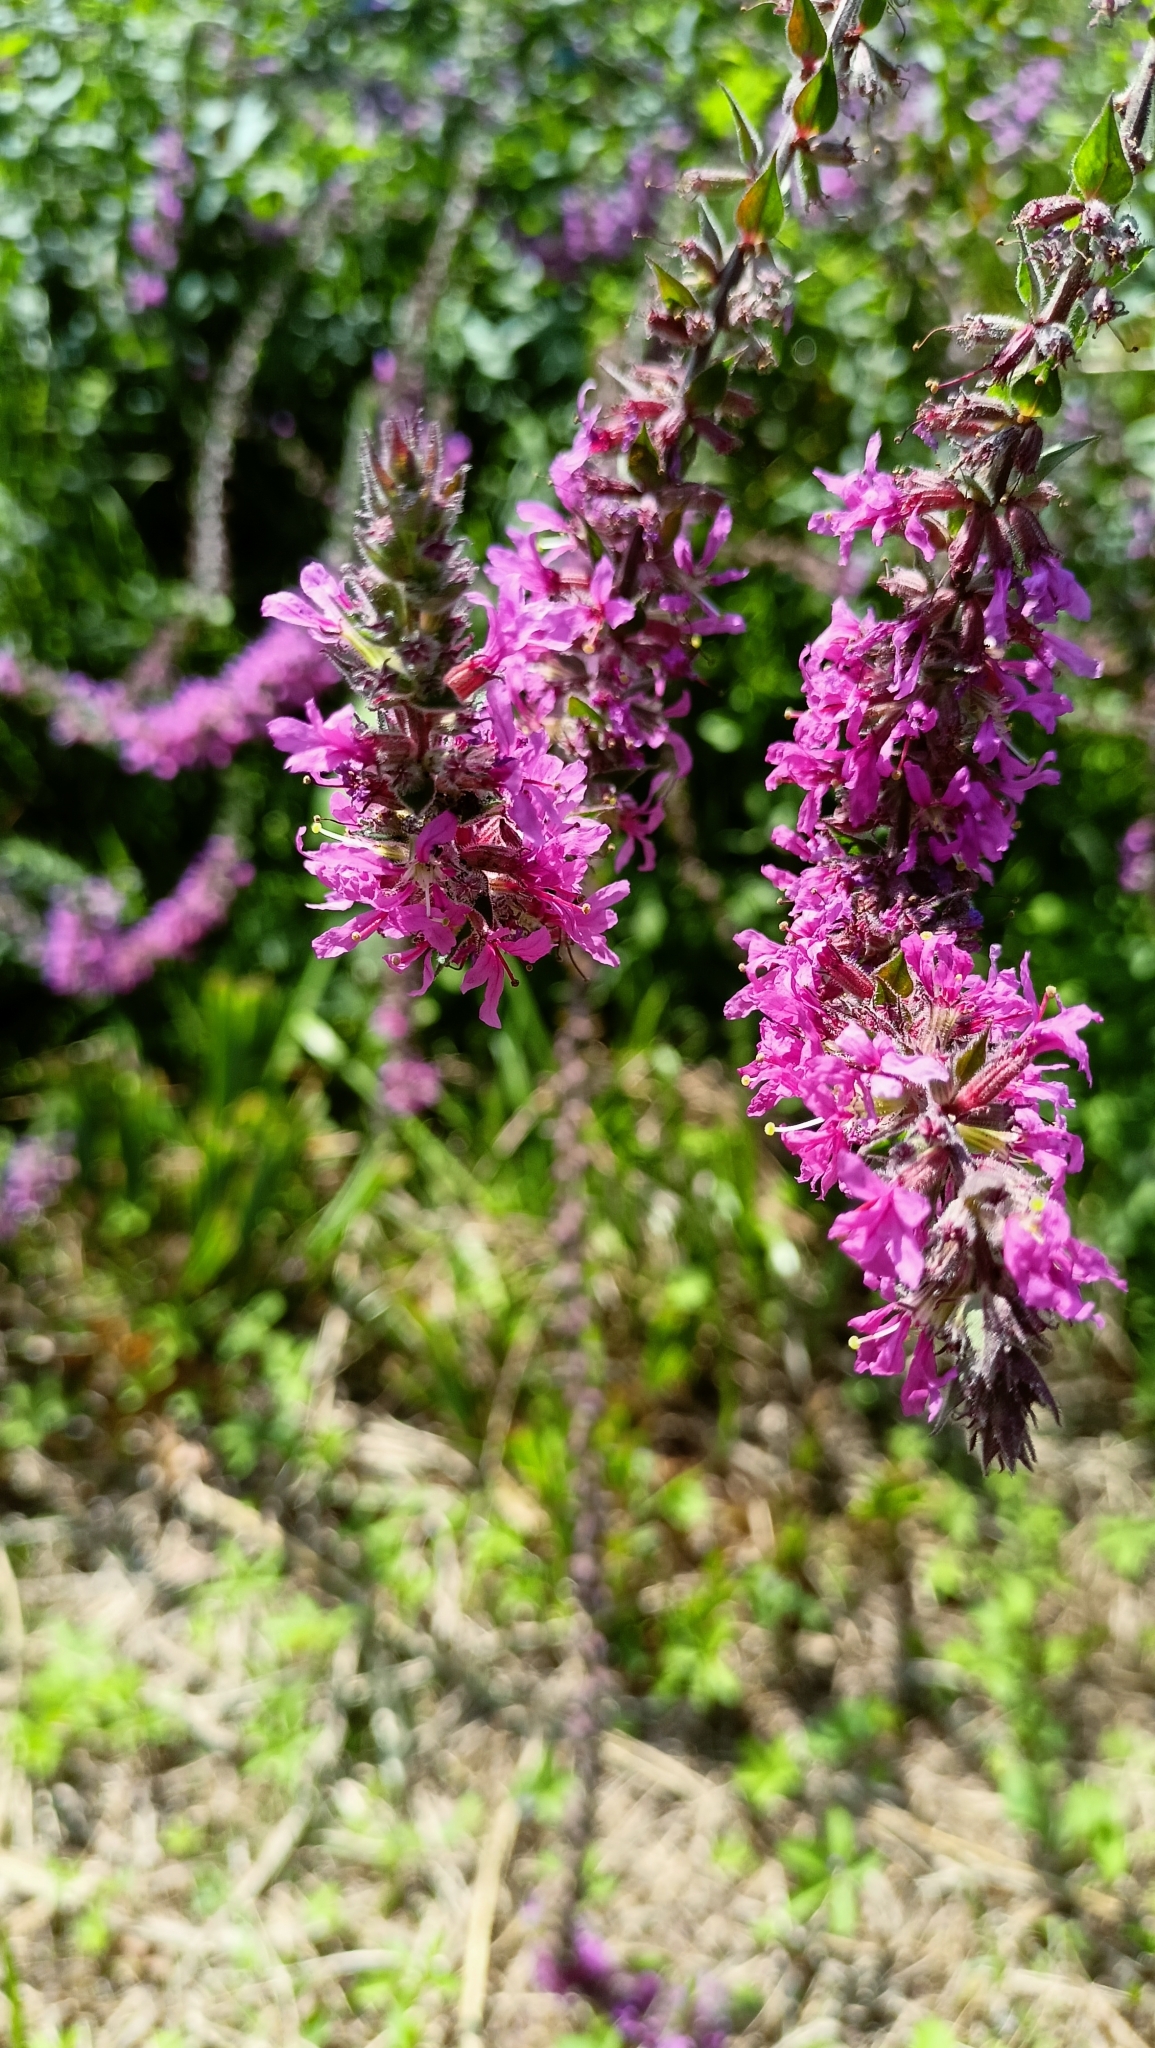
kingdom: Plantae
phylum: Tracheophyta
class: Magnoliopsida
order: Myrtales
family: Lythraceae
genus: Lythrum
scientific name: Lythrum salicaria
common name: Purple loosestrife
